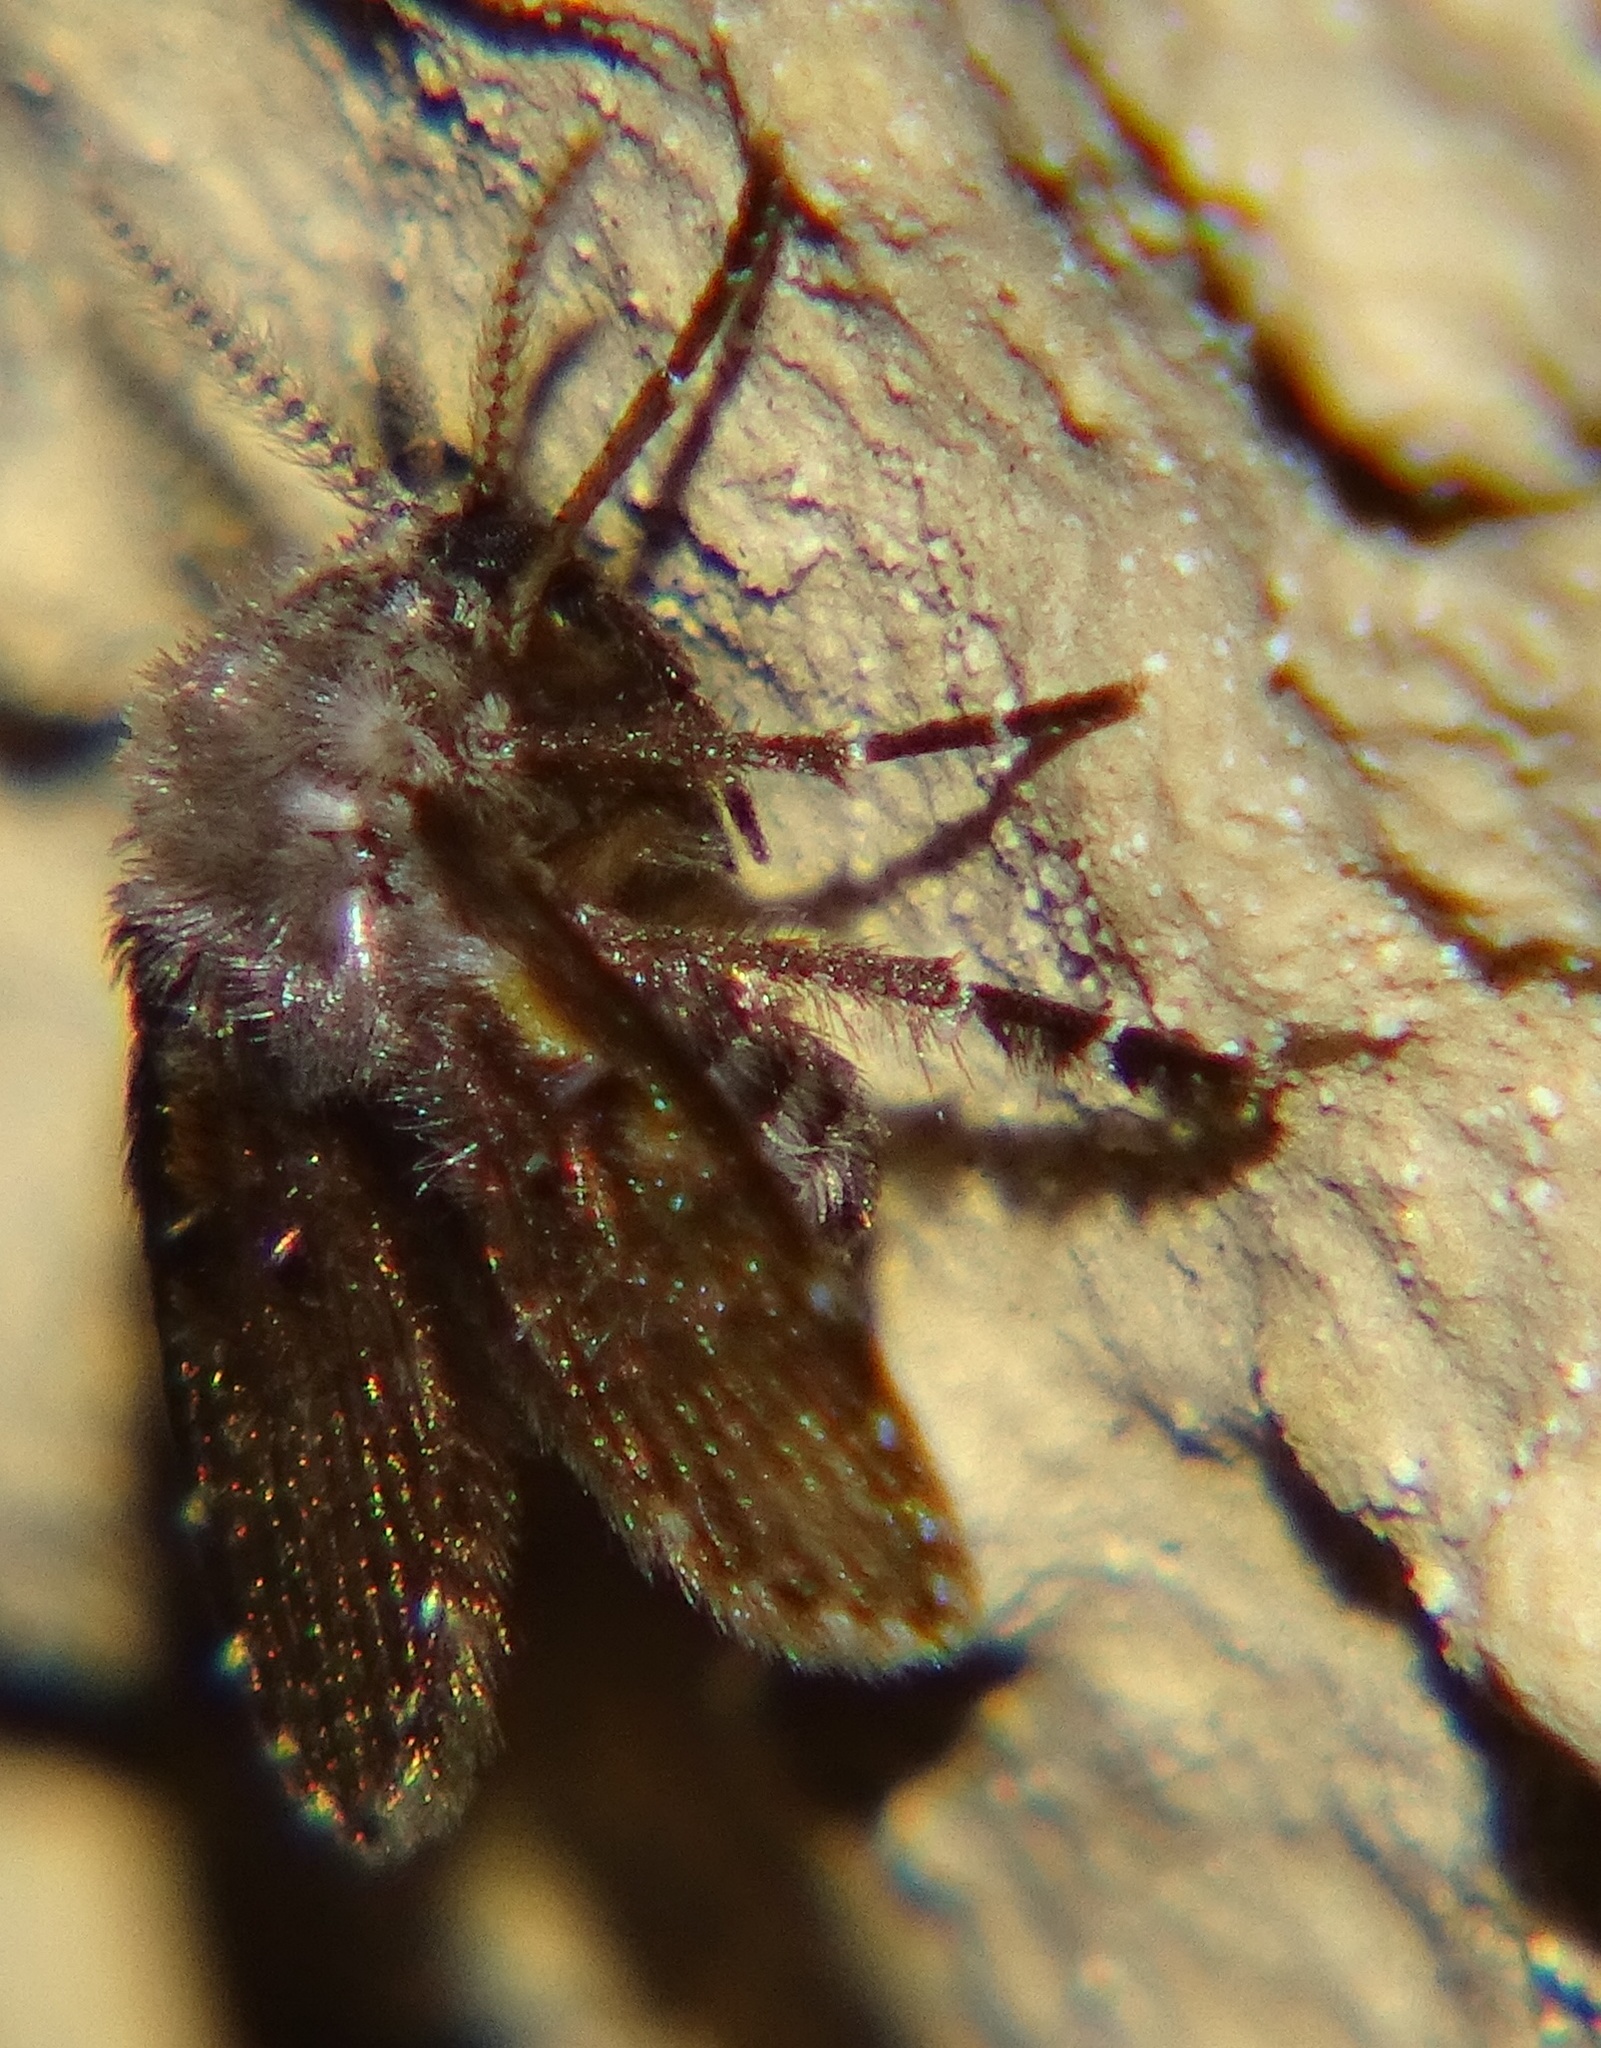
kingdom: Animalia
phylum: Arthropoda
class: Insecta
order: Diptera
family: Psychodidae
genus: Clogmia
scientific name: Clogmia albipunctatus
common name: White-spotted moth fly
